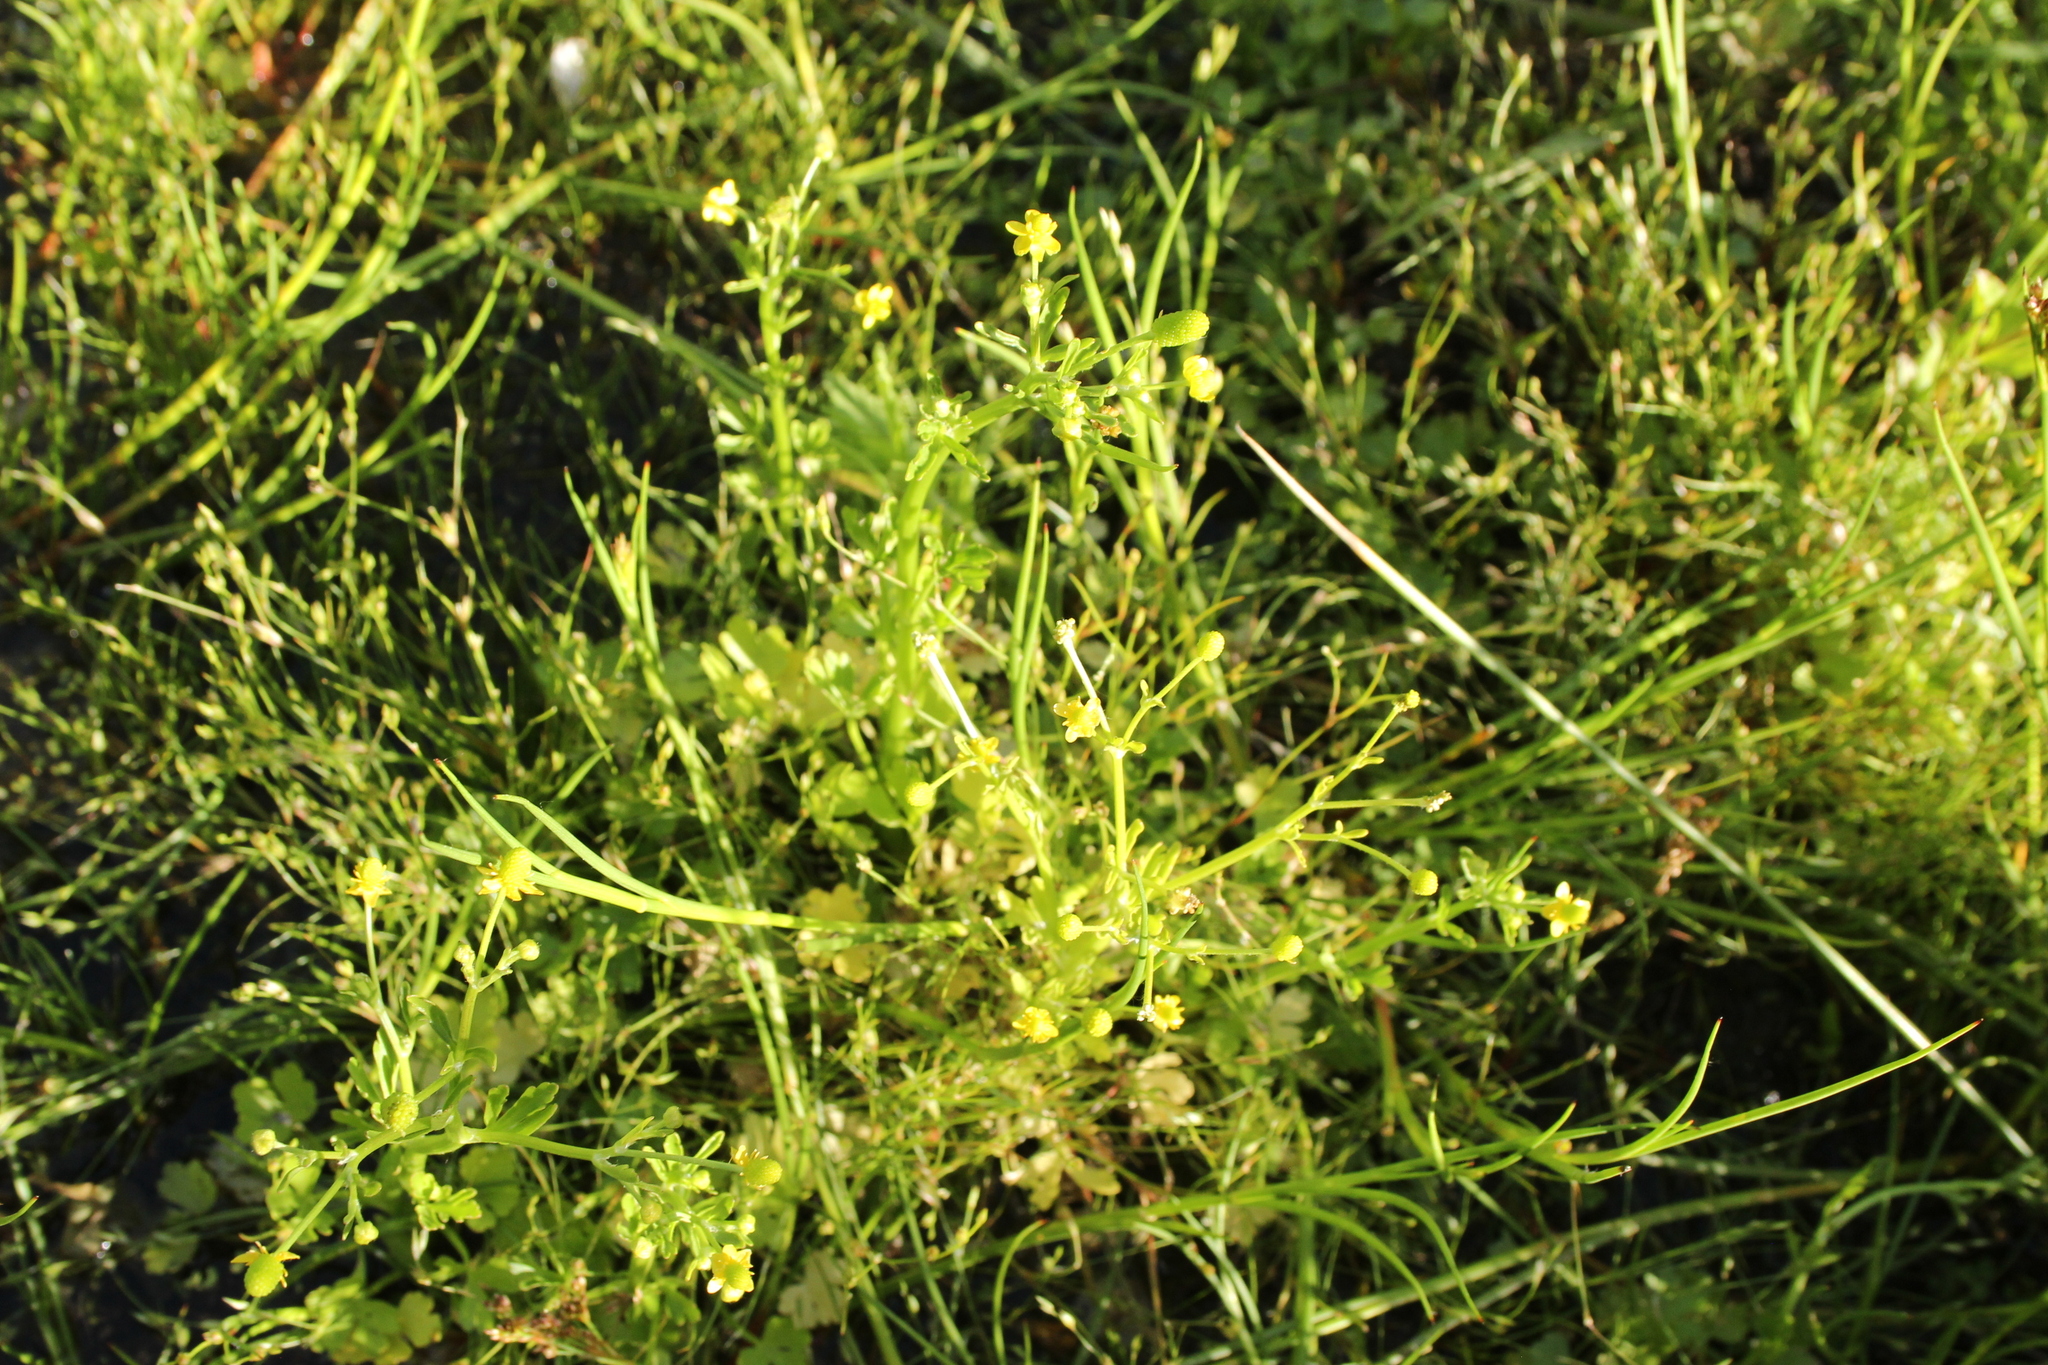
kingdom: Plantae
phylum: Tracheophyta
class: Magnoliopsida
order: Ranunculales
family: Ranunculaceae
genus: Ranunculus
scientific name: Ranunculus sceleratus
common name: Celery-leaved buttercup
